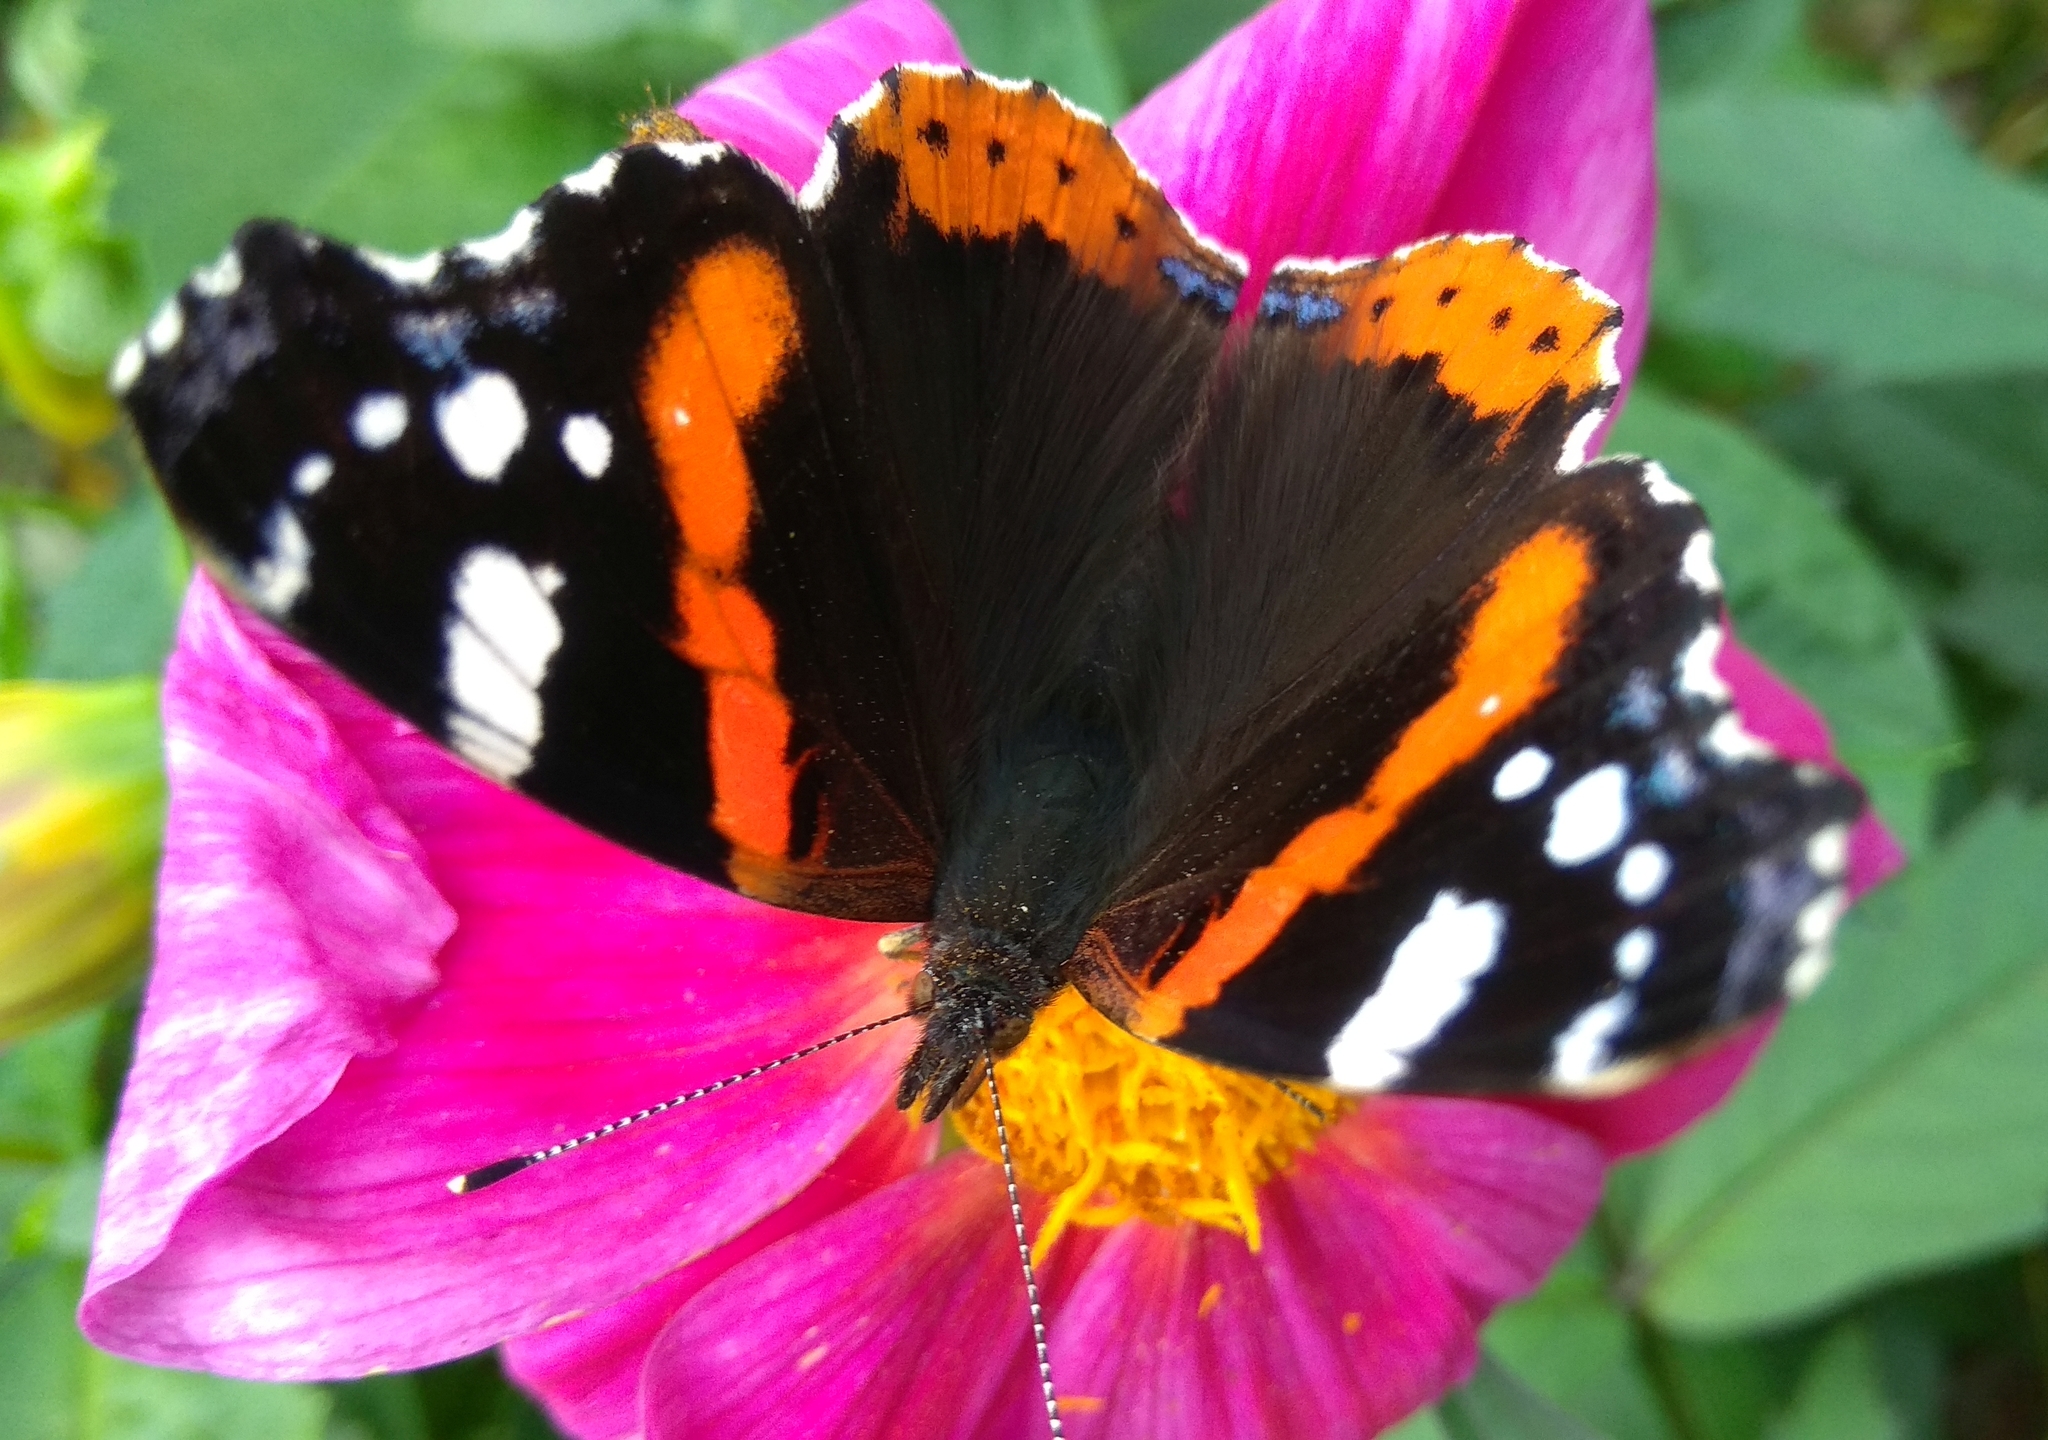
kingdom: Animalia
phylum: Arthropoda
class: Insecta
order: Lepidoptera
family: Nymphalidae
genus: Vanessa
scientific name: Vanessa atalanta
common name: Red admiral
